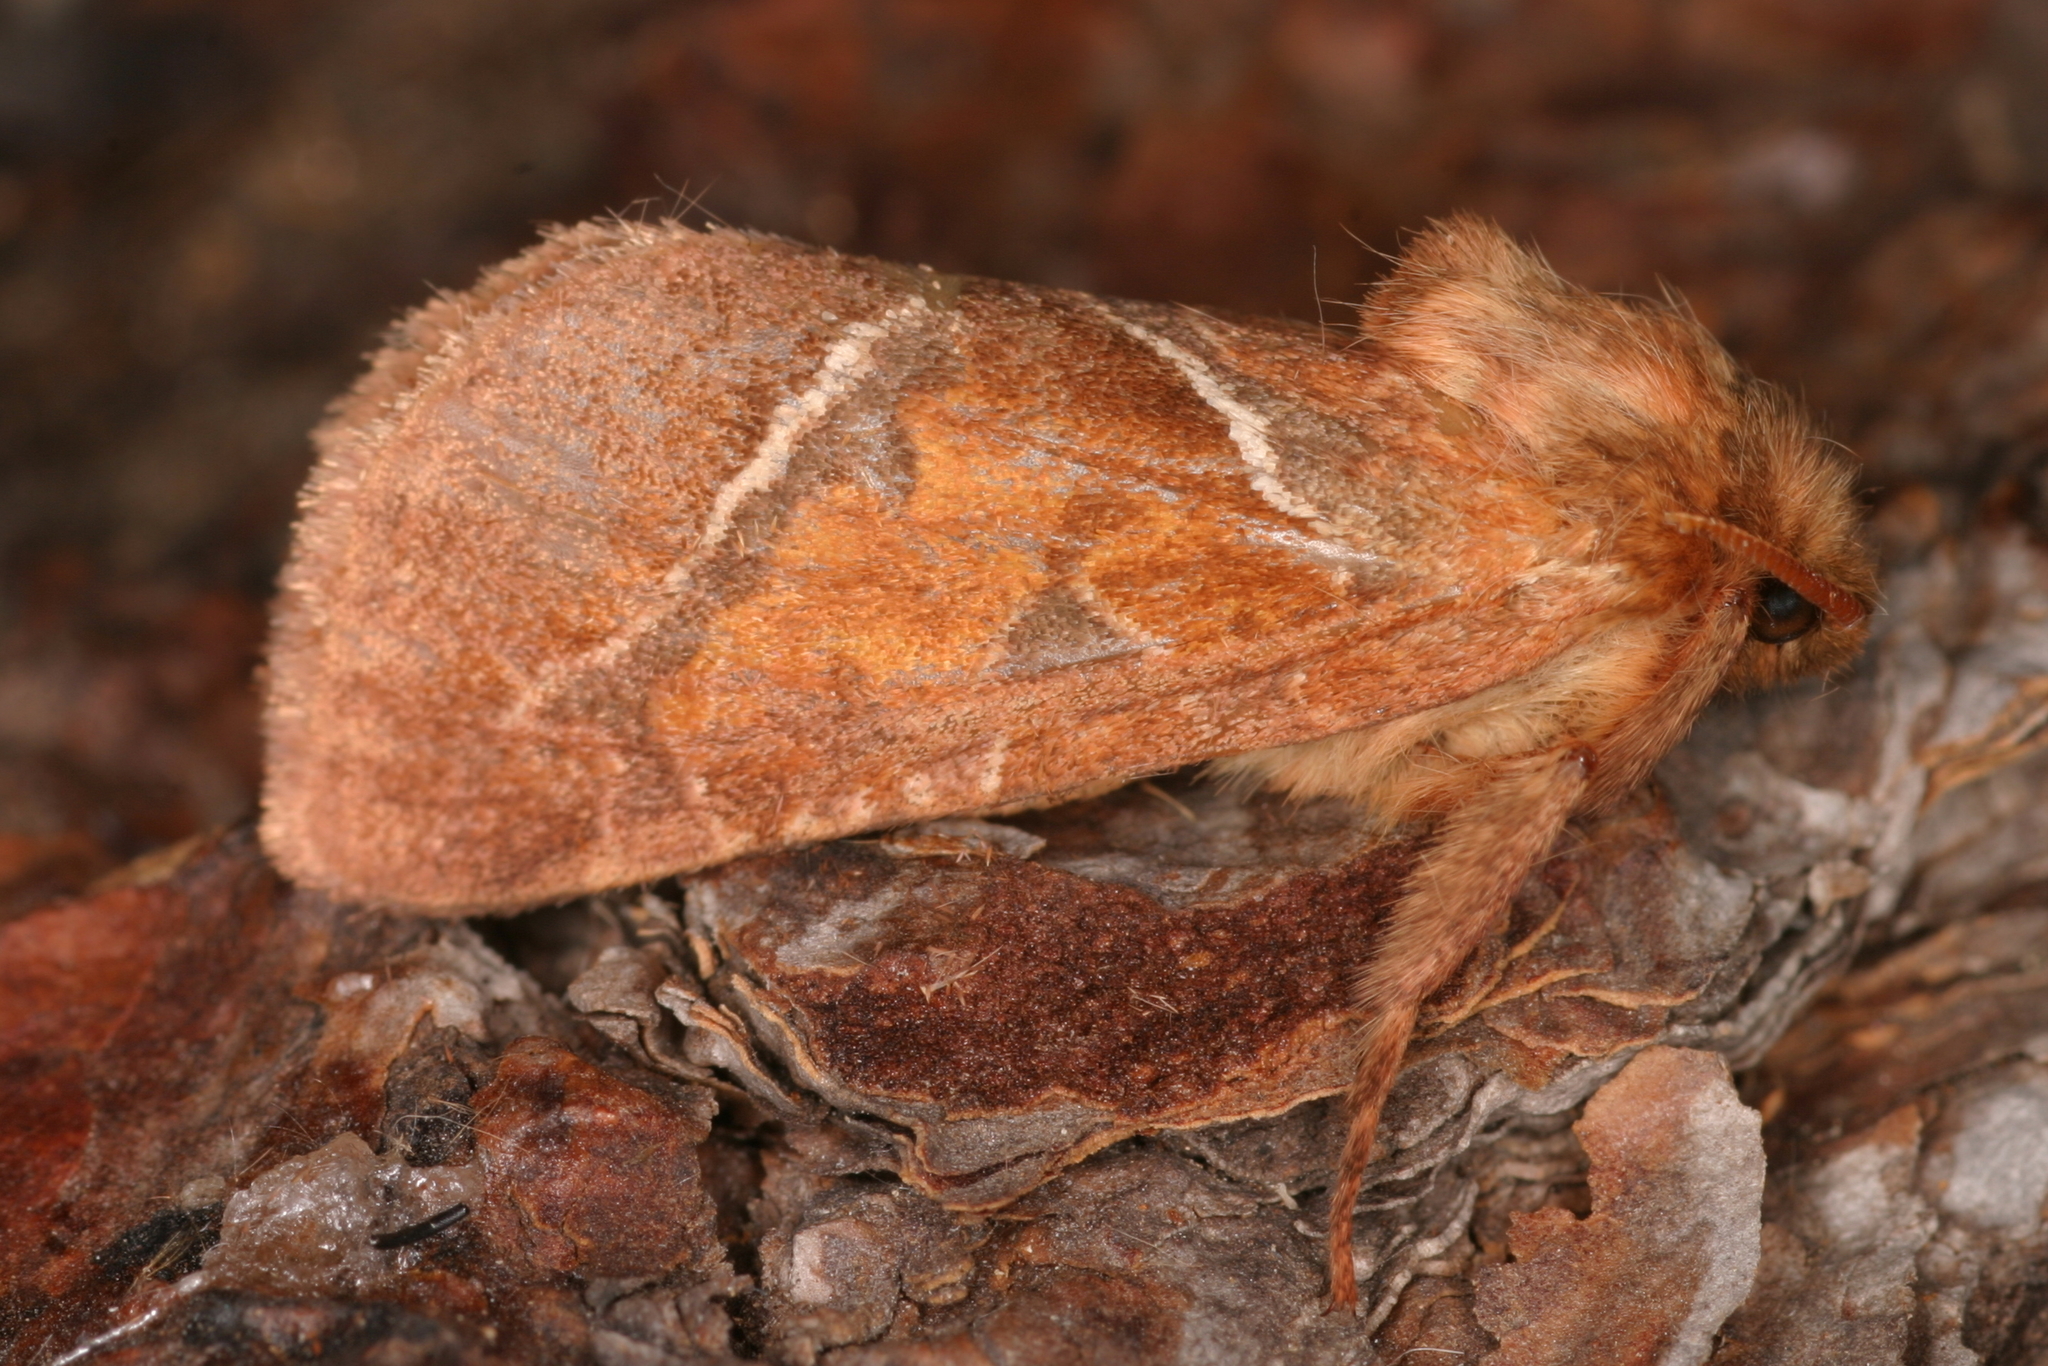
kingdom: Animalia
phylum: Arthropoda
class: Insecta
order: Lepidoptera
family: Hepialidae
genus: Triodia
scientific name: Triodia sylvina
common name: Orange swift
